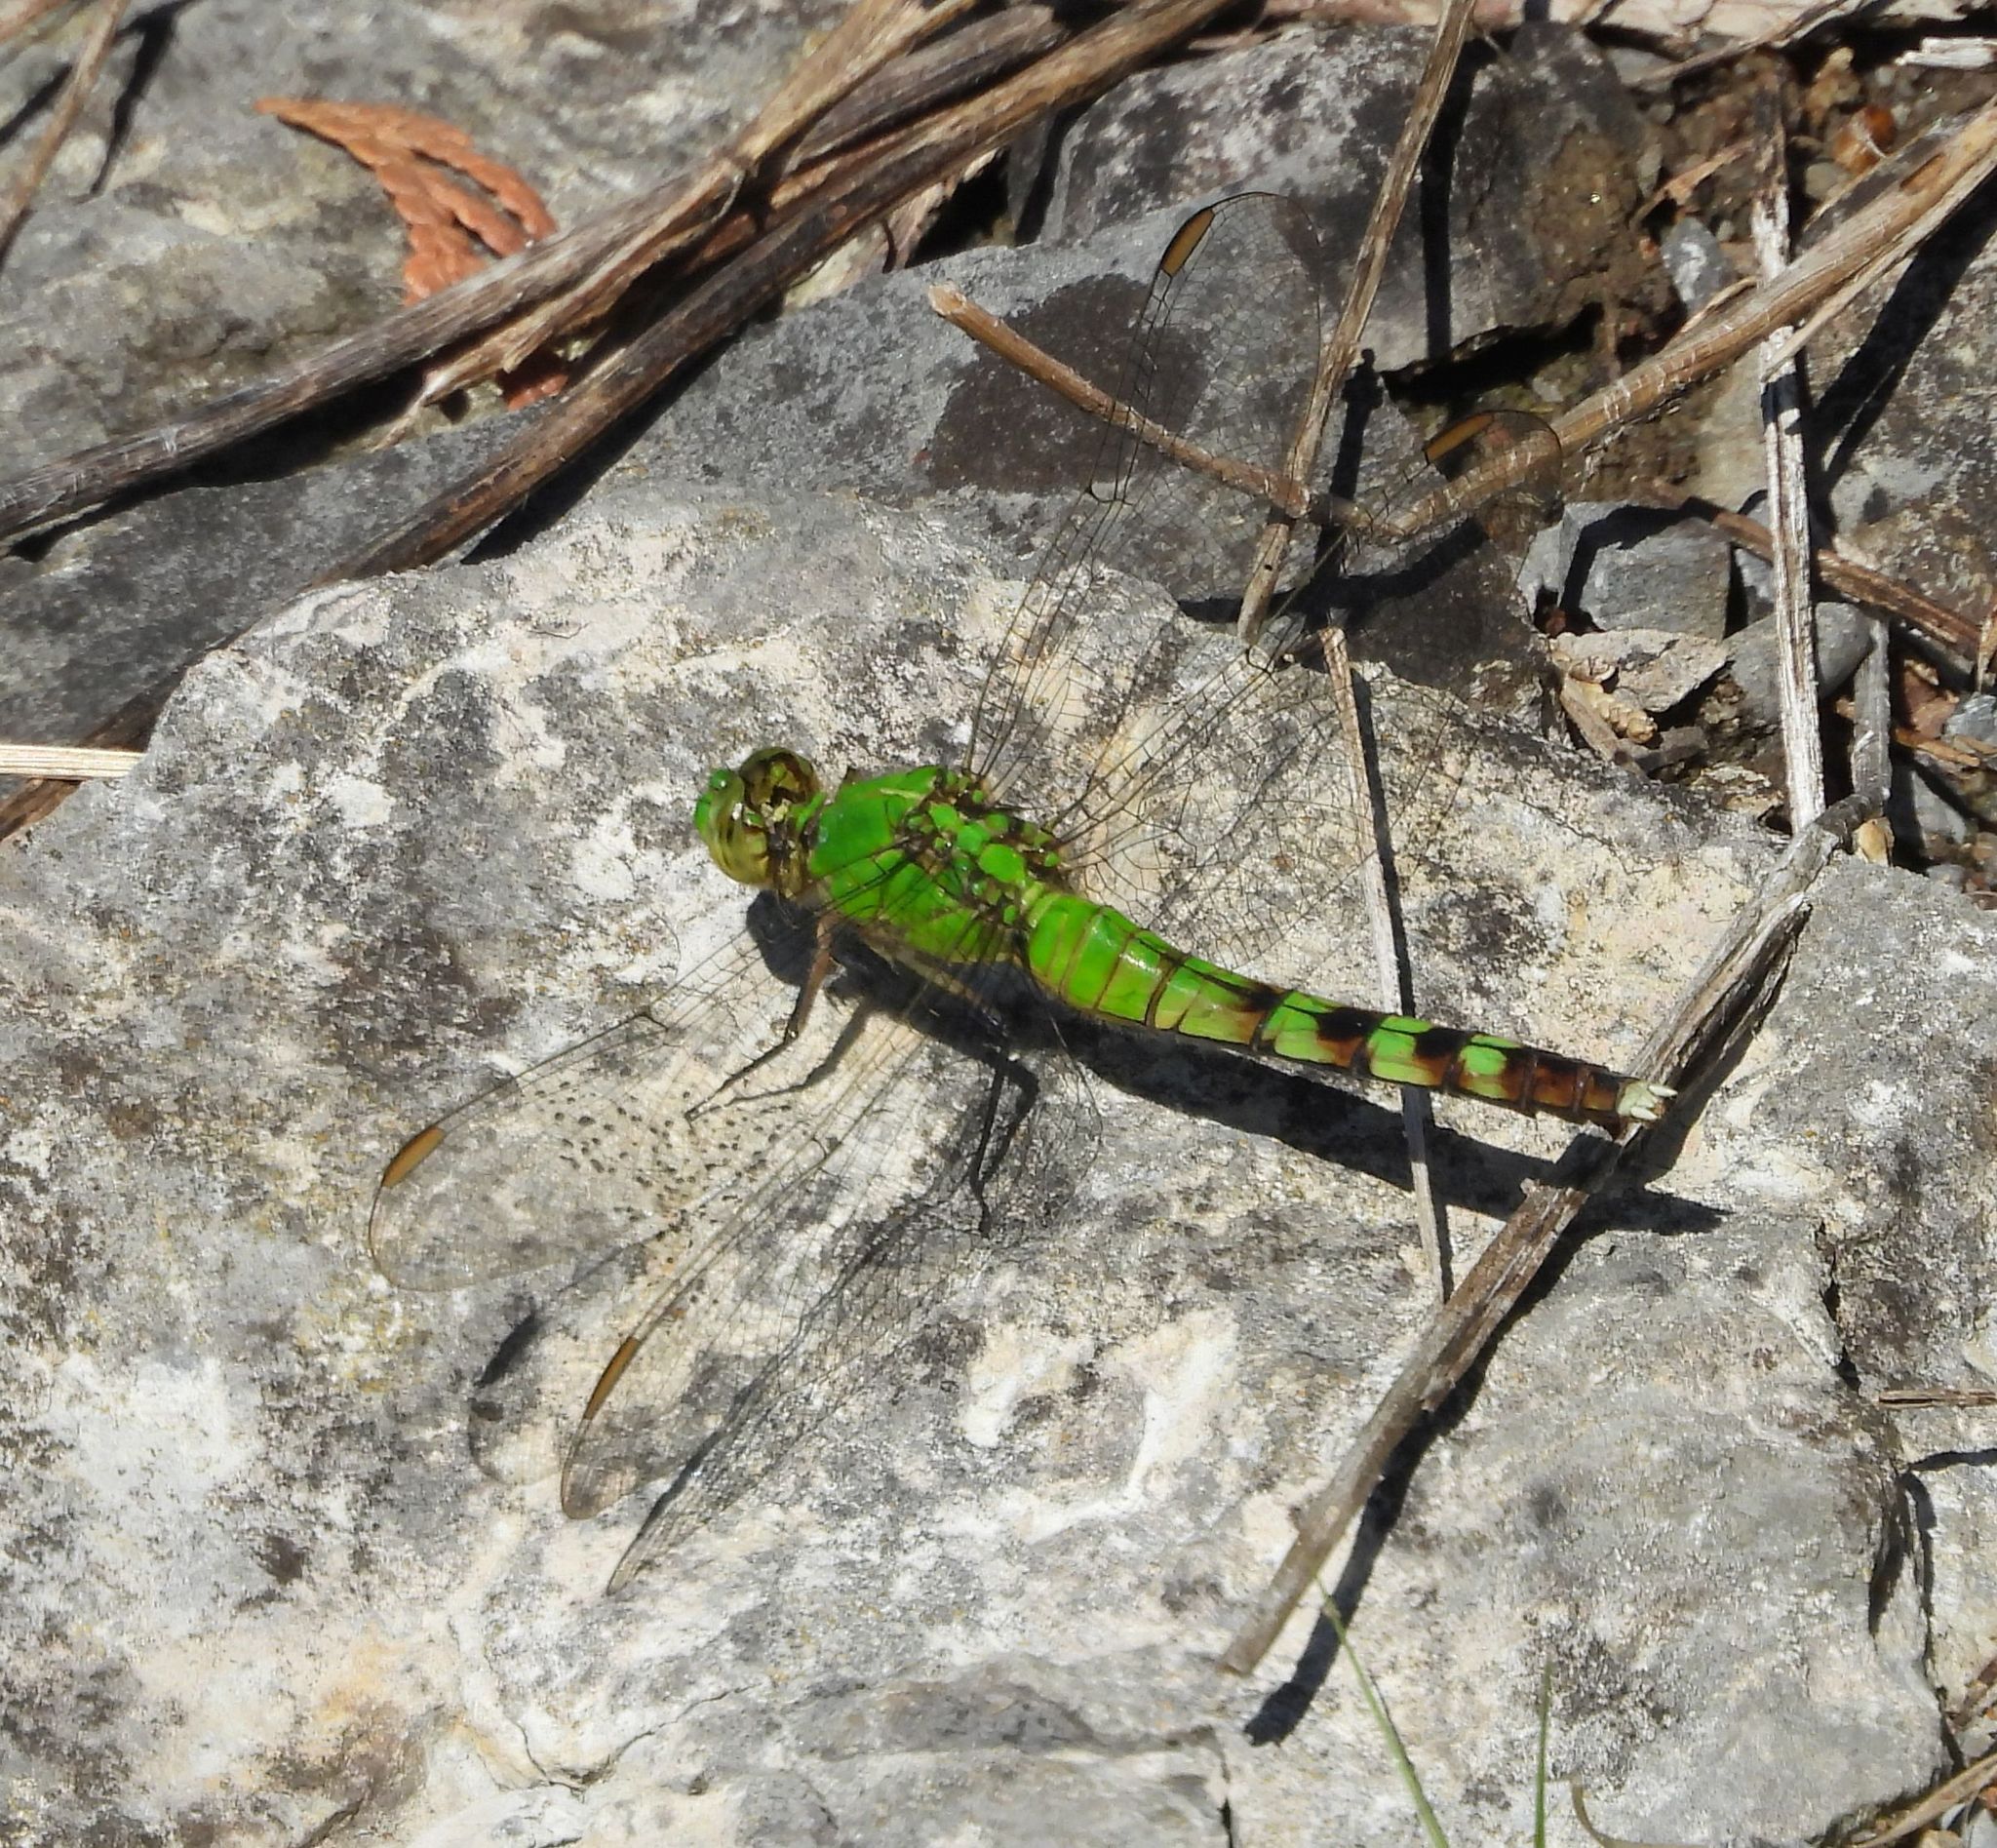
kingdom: Animalia
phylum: Arthropoda
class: Insecta
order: Odonata
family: Libellulidae
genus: Erythemis
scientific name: Erythemis simplicicollis
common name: Eastern pondhawk
